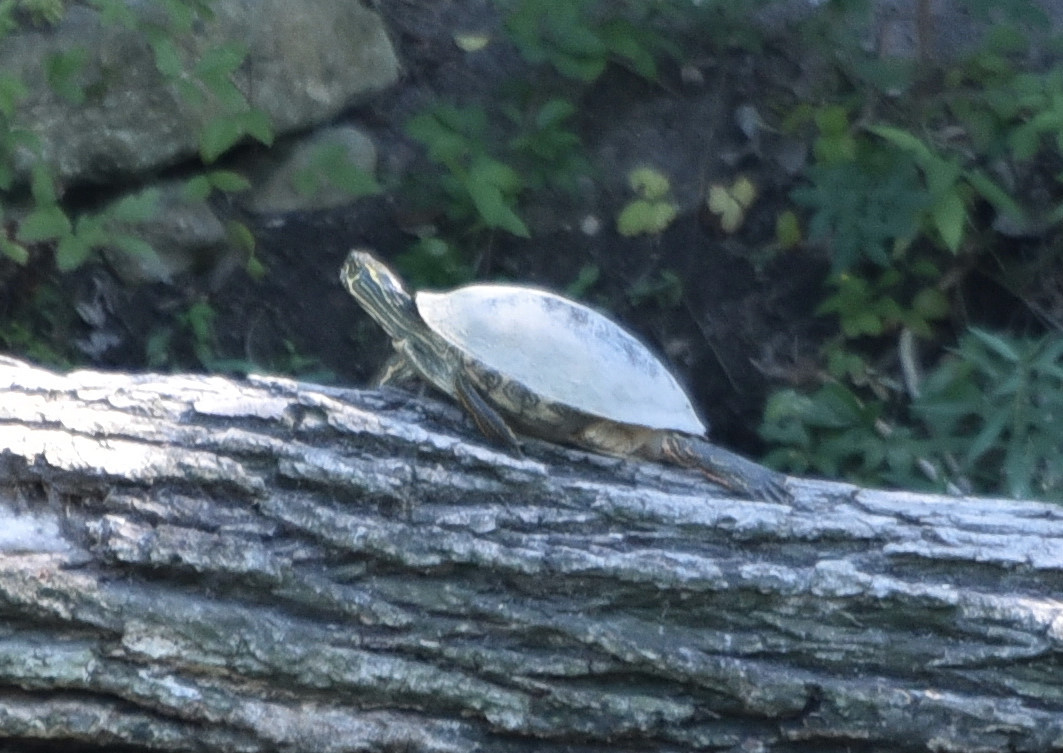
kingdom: Animalia
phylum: Chordata
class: Testudines
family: Emydidae
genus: Pseudemys
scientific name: Pseudemys texana
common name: Texas river cooter
